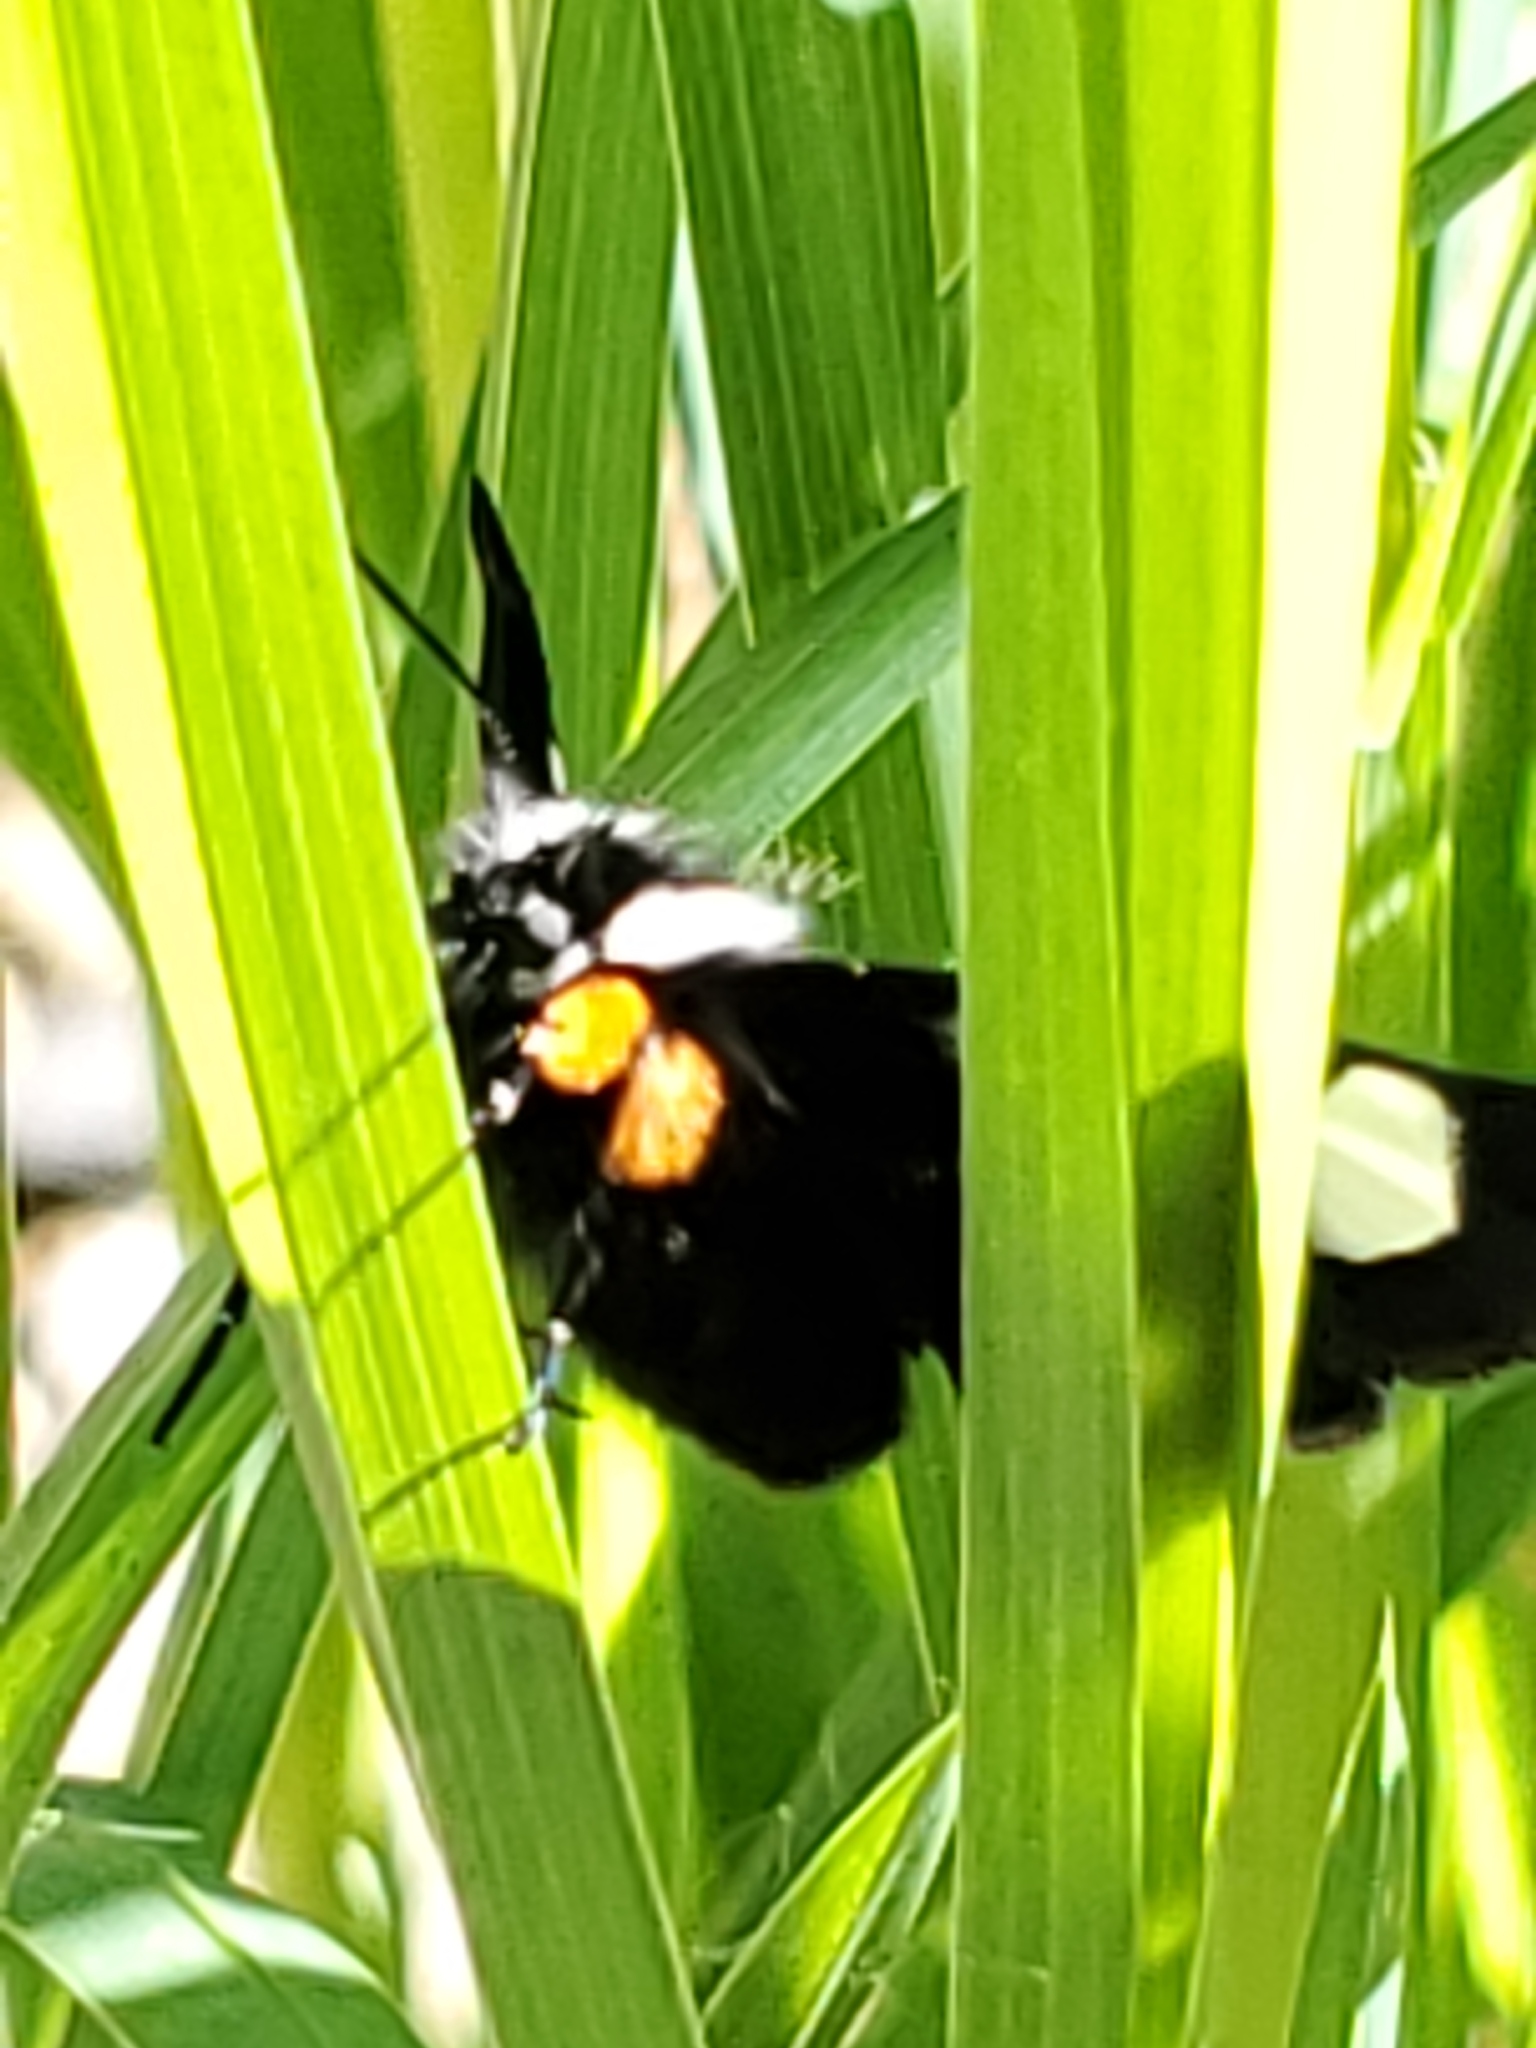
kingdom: Animalia
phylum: Arthropoda
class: Insecta
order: Lepidoptera
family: Noctuidae
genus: Alypia
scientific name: Alypia langtonii
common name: Fireweed caterpillar
